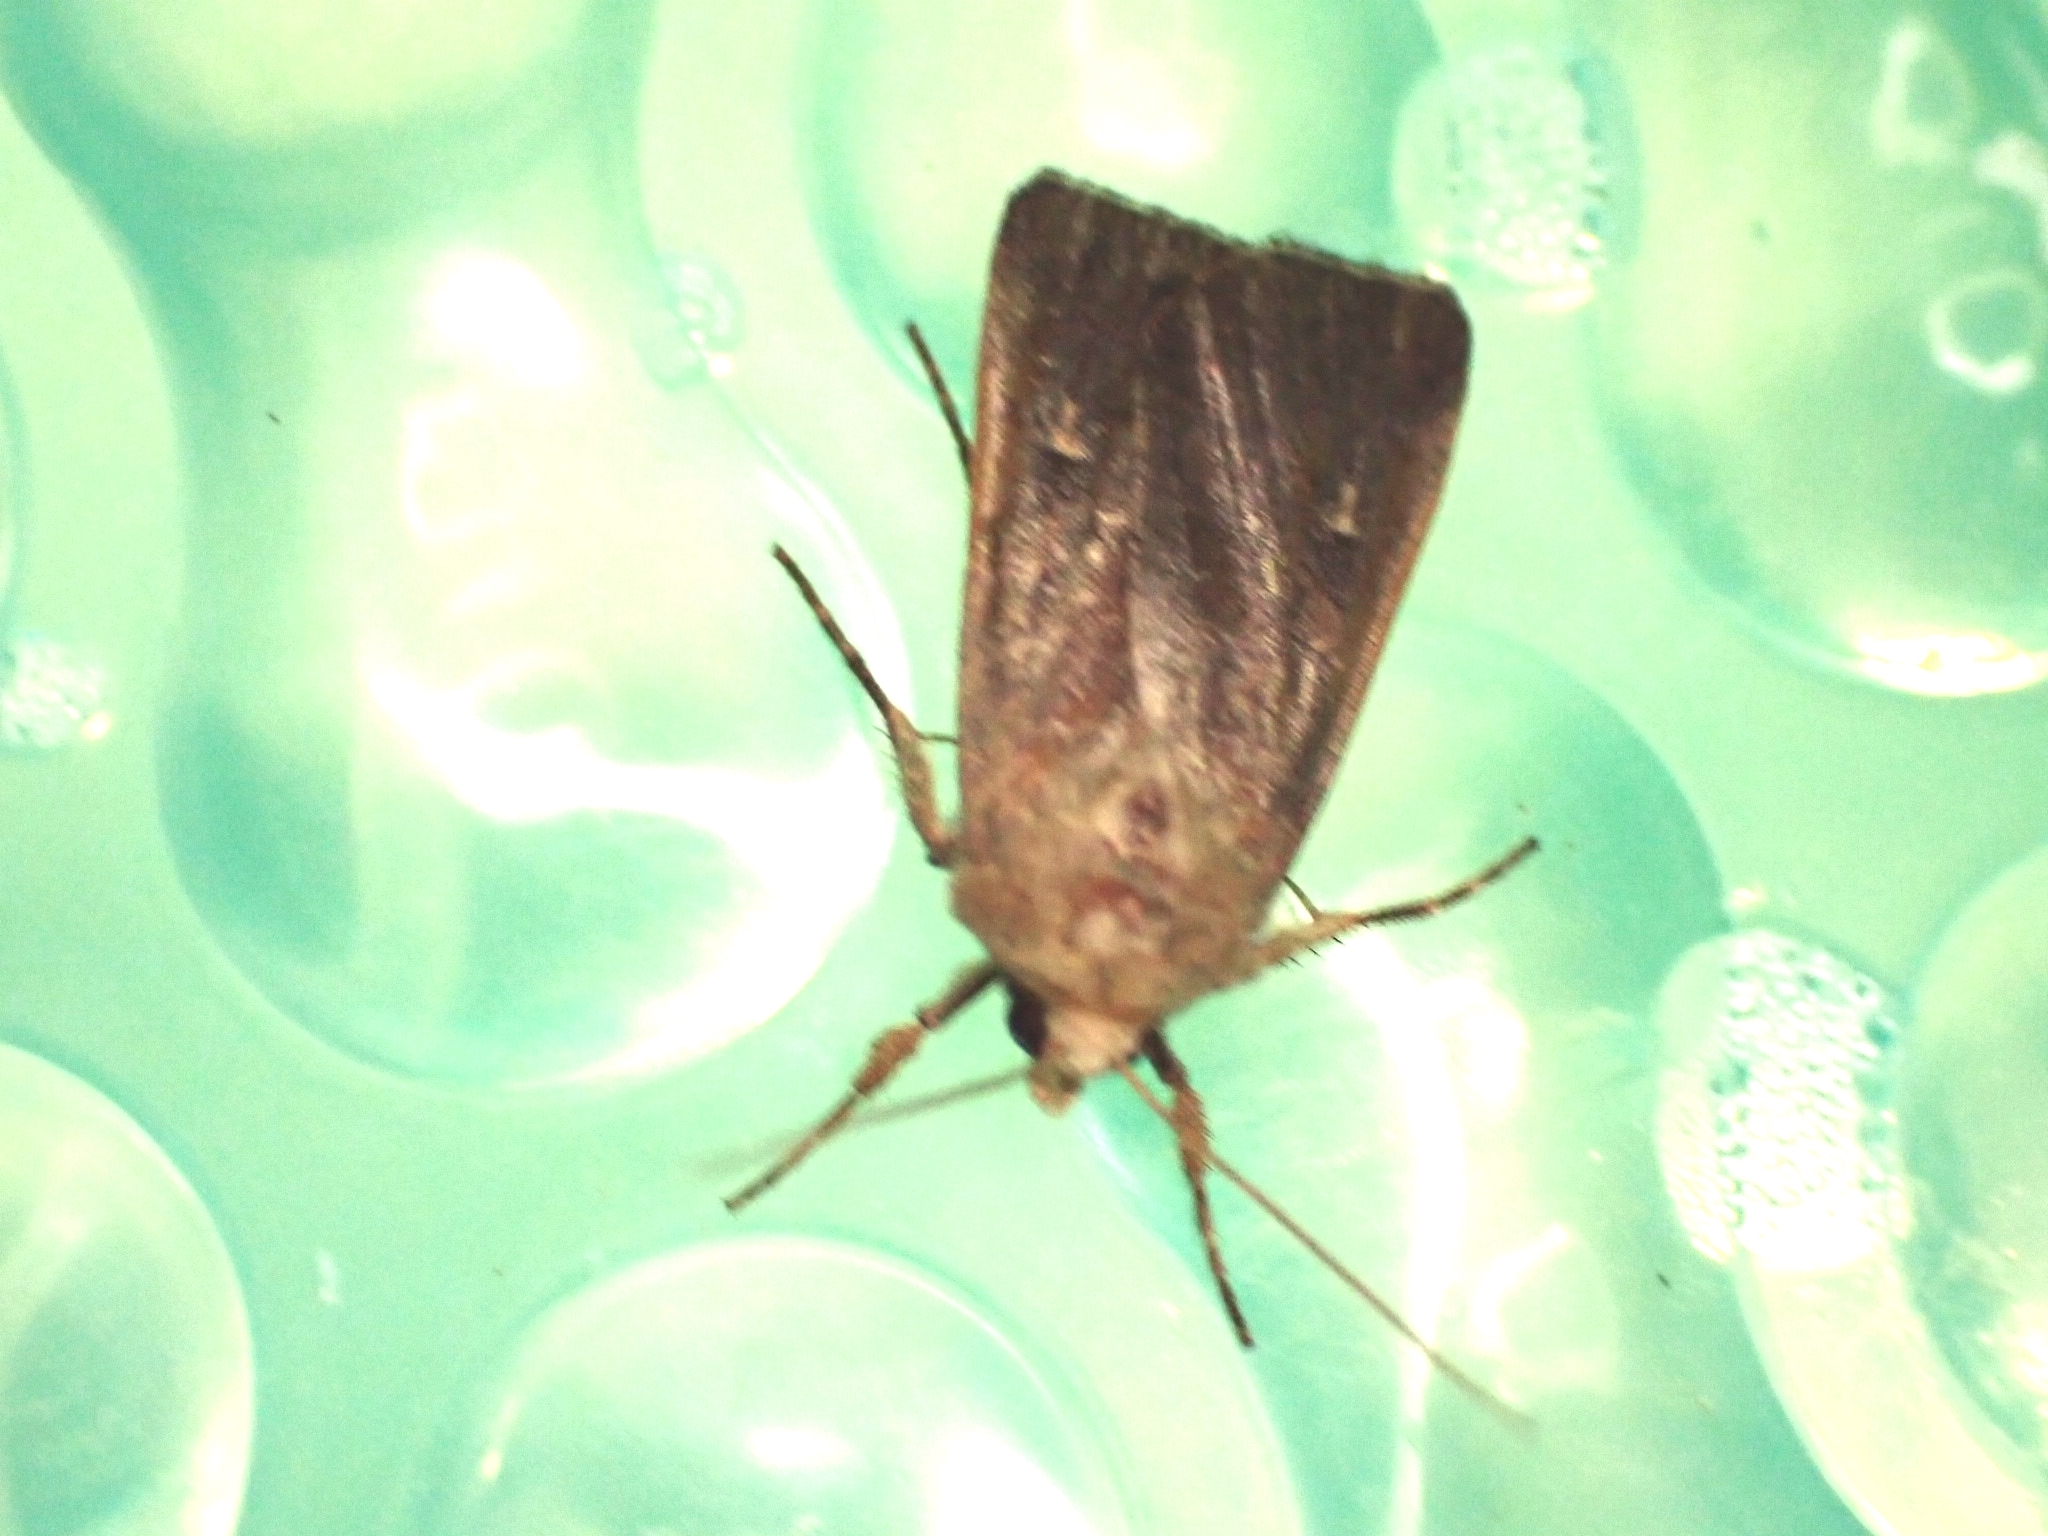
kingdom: Animalia
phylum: Arthropoda
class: Insecta
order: Lepidoptera
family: Noctuidae
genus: Xestia
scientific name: Xestia xanthographa
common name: Square-spot rustic
